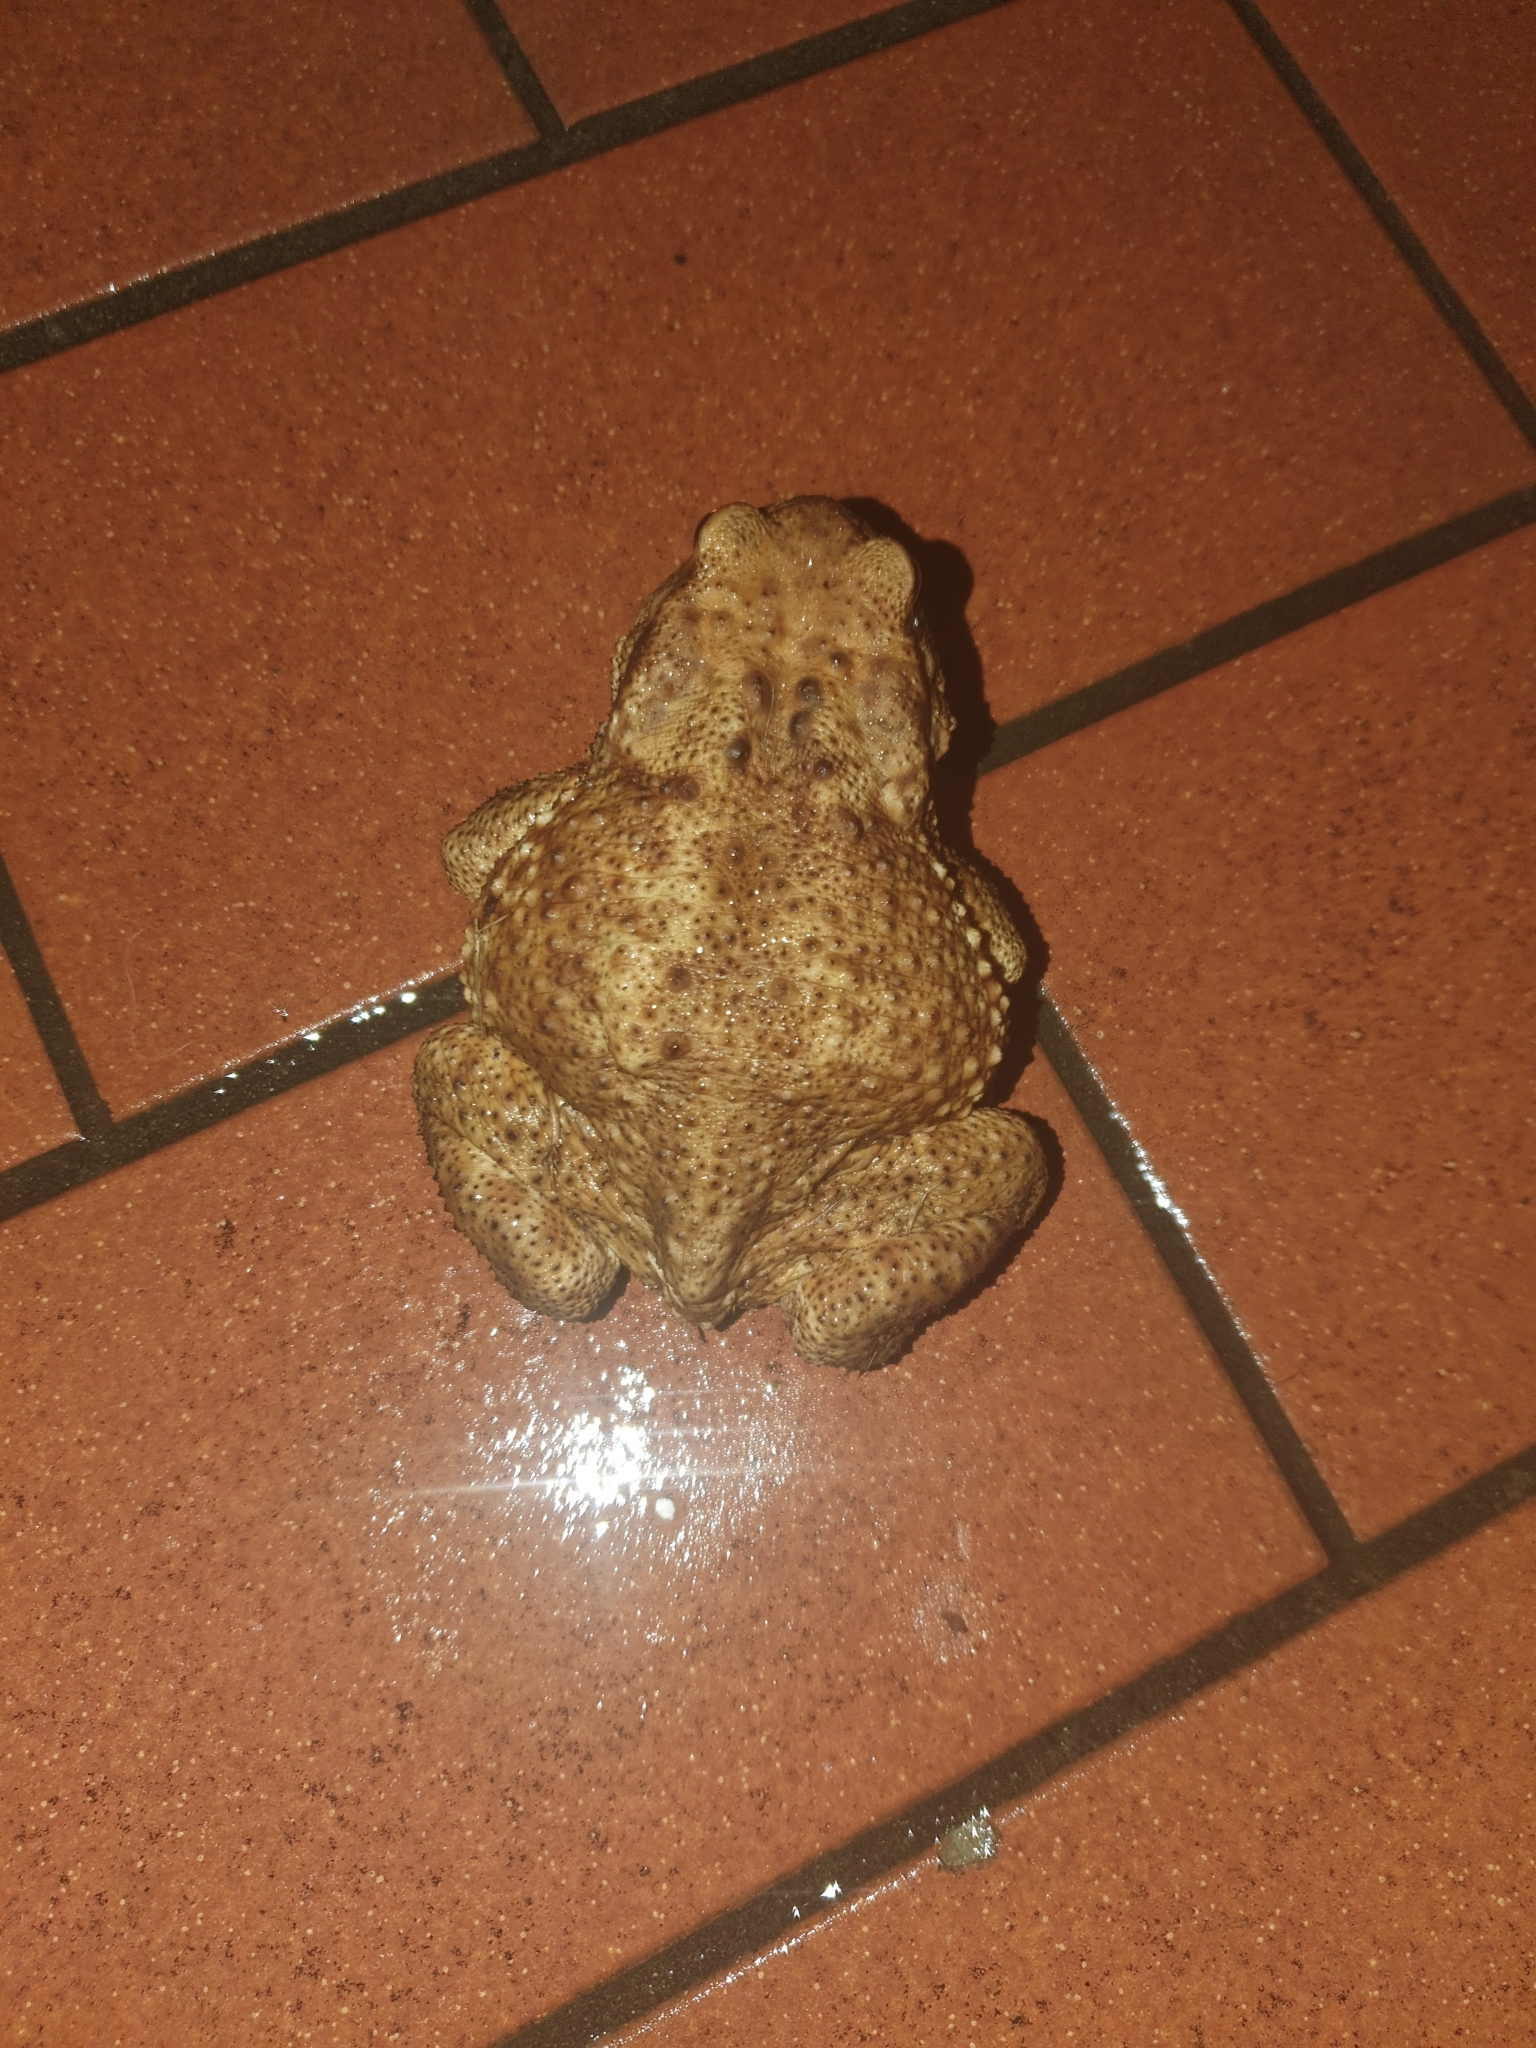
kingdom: Animalia
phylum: Chordata
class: Amphibia
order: Anura
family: Bufonidae
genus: Bufo
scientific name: Bufo bufo
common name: Common toad
